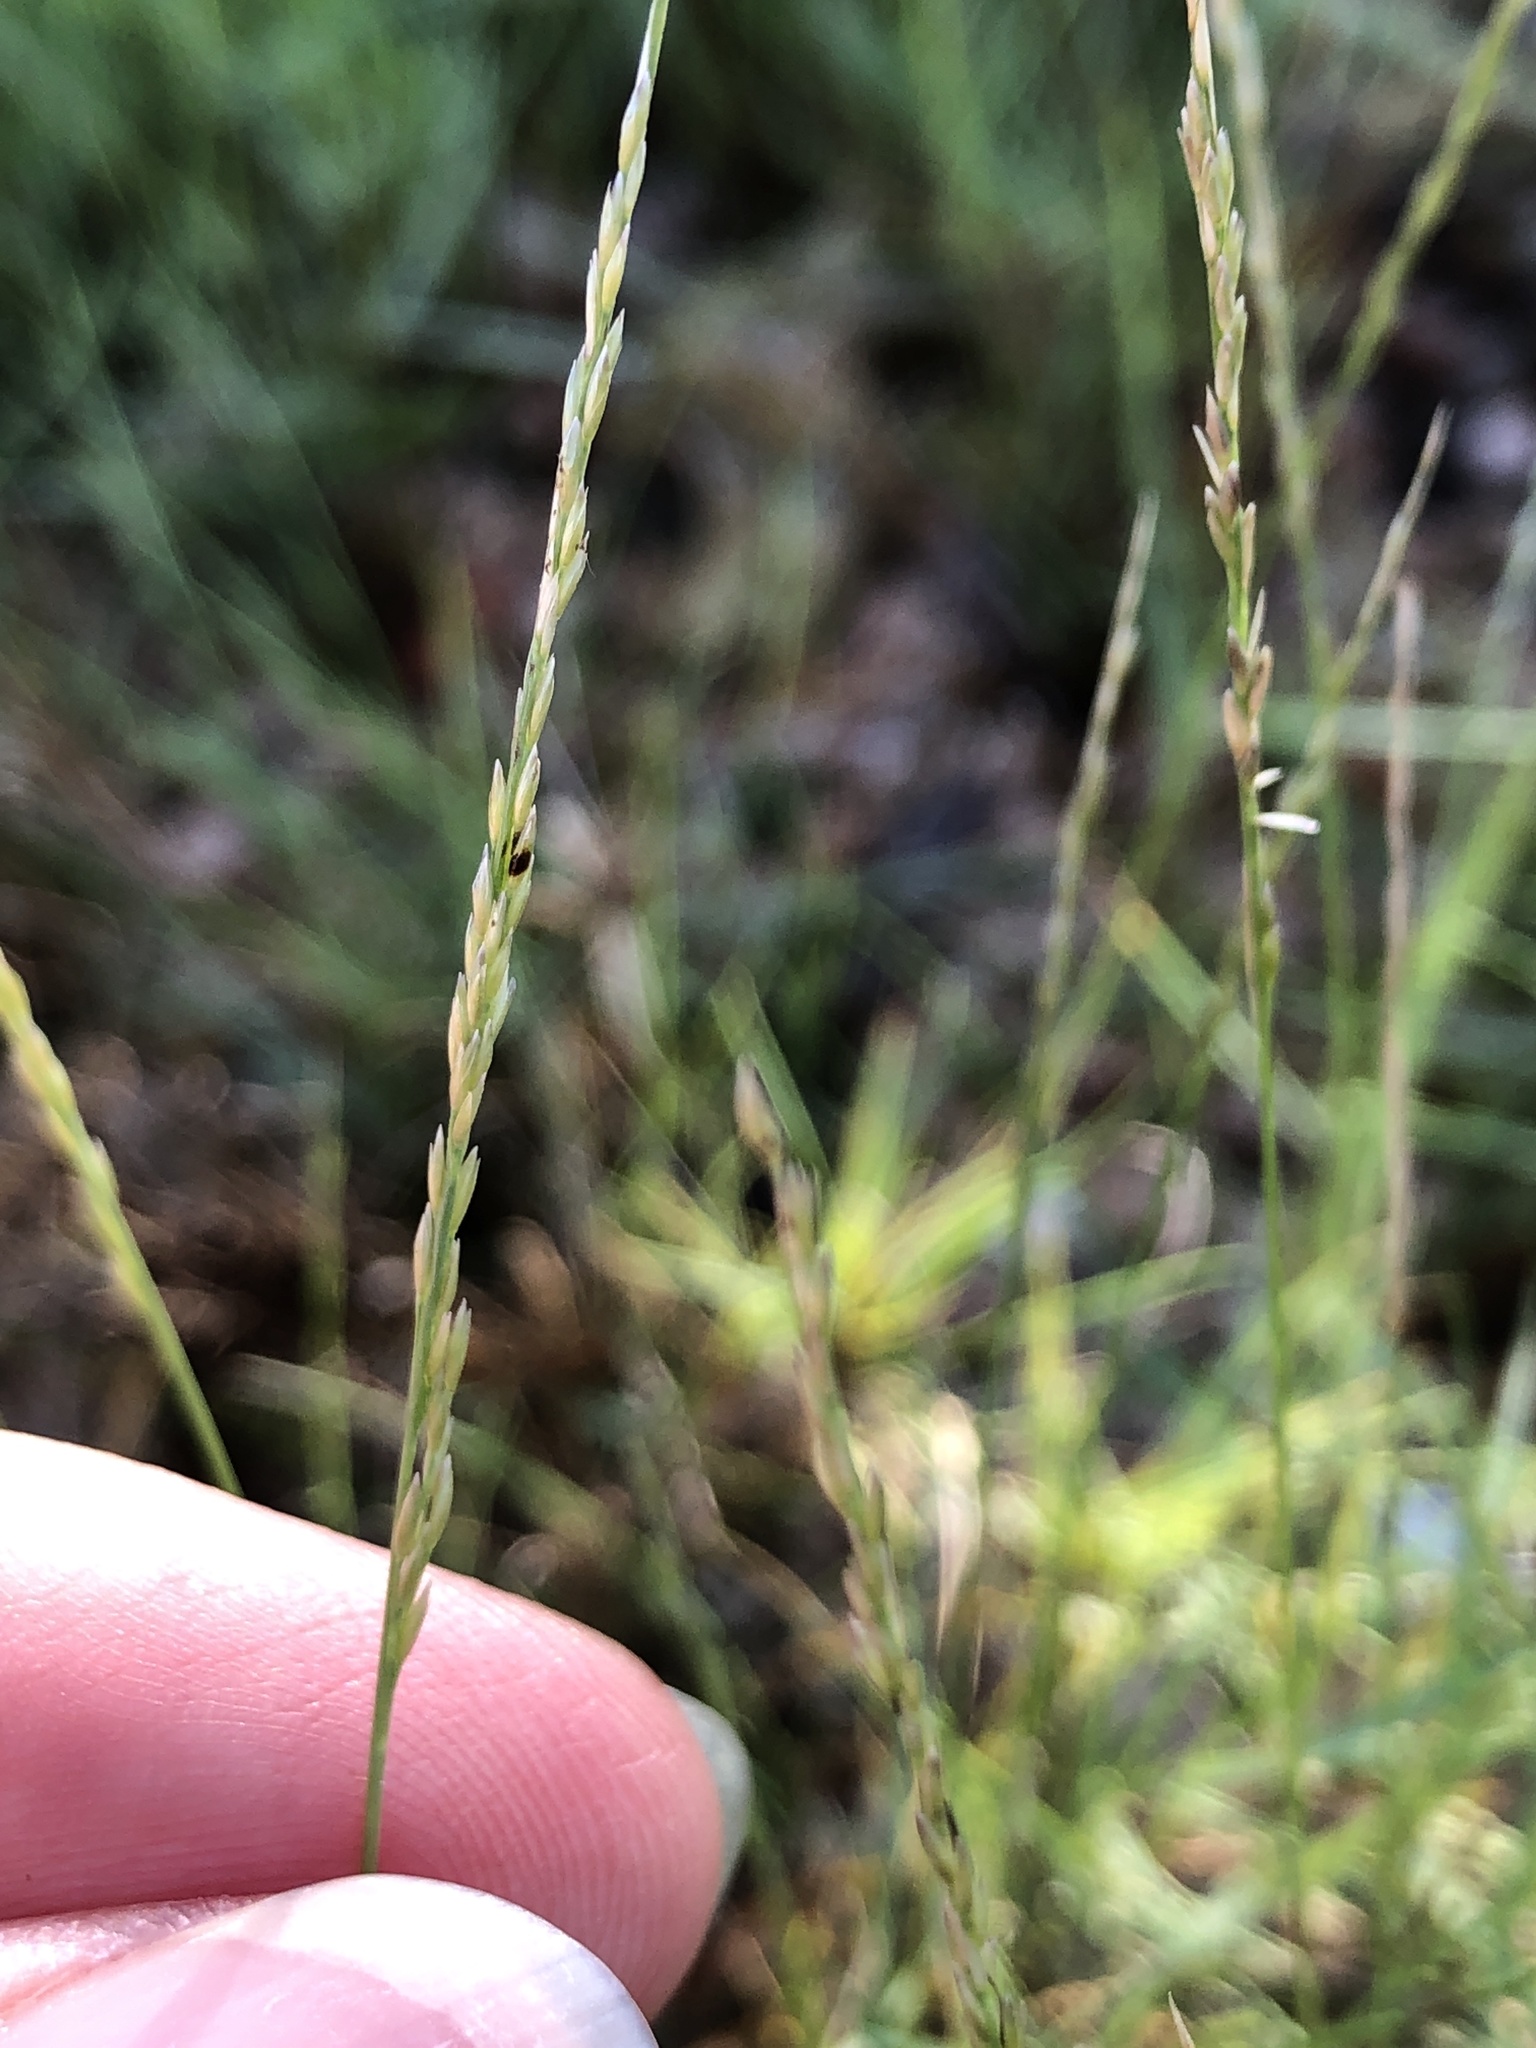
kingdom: Plantae
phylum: Tracheophyta
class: Liliopsida
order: Poales
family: Poaceae
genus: Sporobolus
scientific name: Sporobolus virginicus
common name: Beach dropseed
